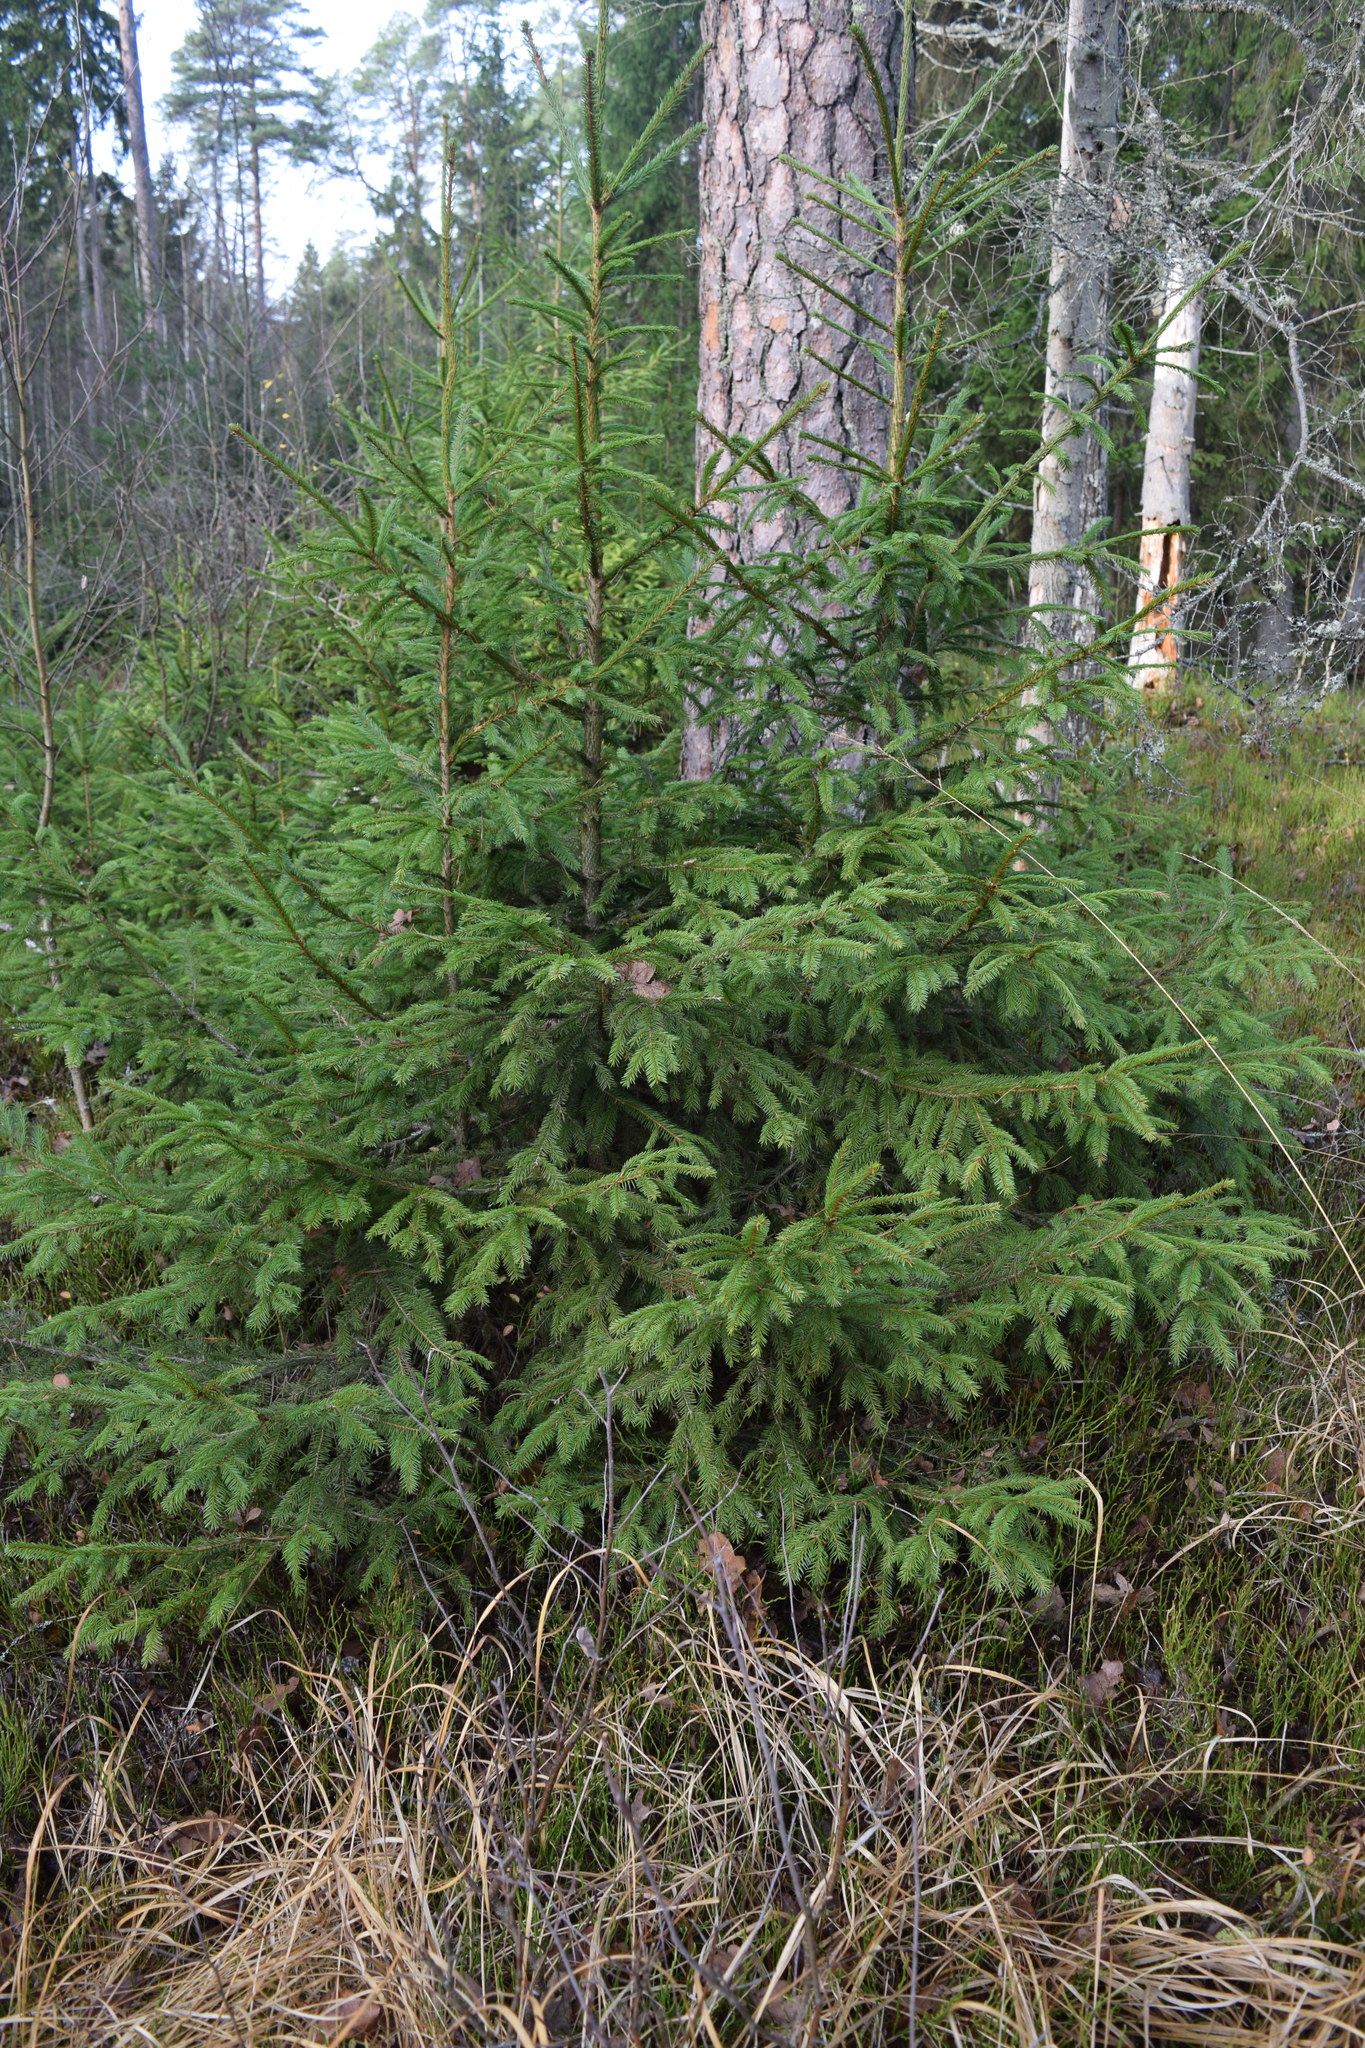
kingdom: Plantae
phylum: Tracheophyta
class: Pinopsida
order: Pinales
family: Pinaceae
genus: Picea
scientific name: Picea abies
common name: Norway spruce
